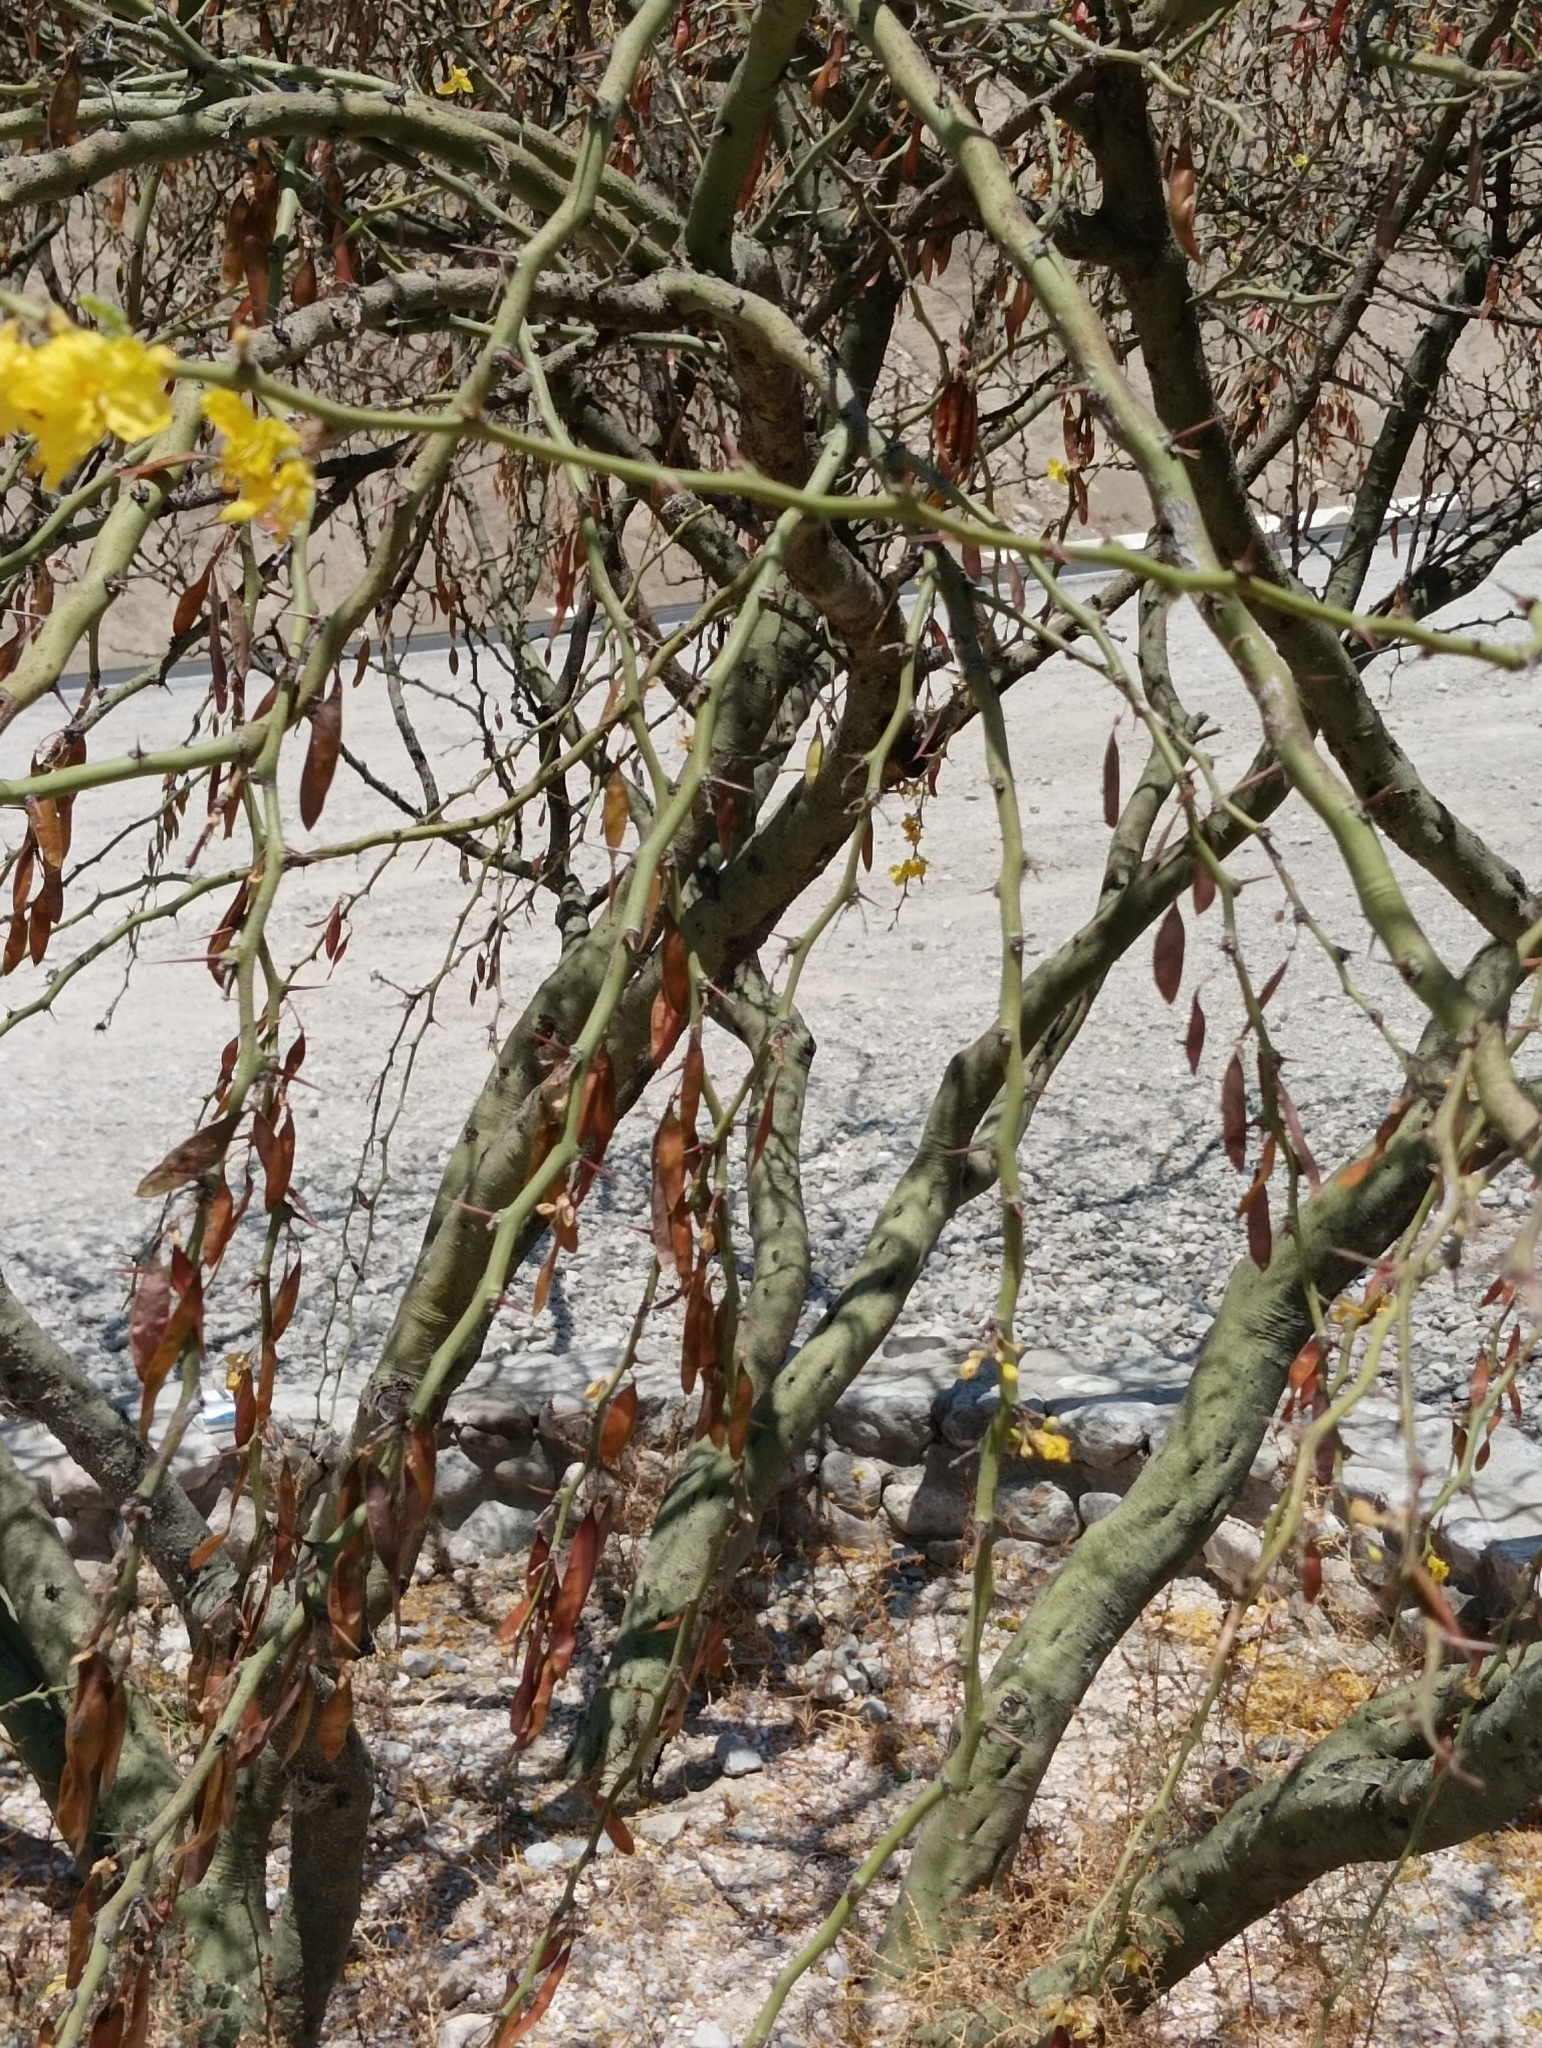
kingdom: Plantae
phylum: Tracheophyta
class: Magnoliopsida
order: Fabales
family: Fabaceae
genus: Parkinsonia
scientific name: Parkinsonia praecox
